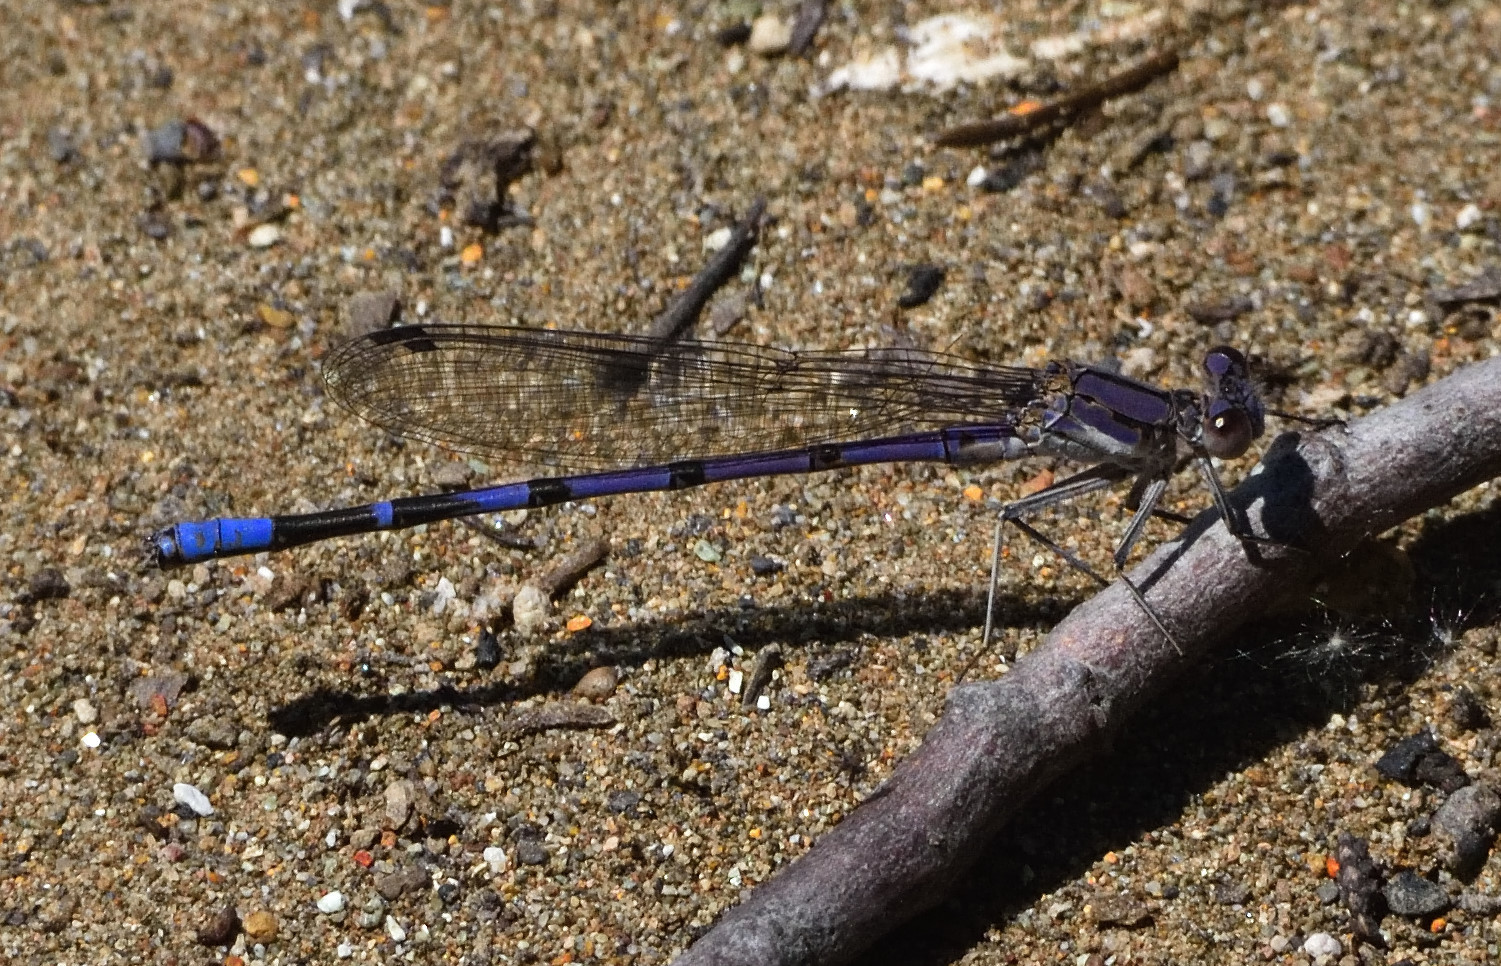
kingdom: Animalia
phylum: Arthropoda
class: Insecta
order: Odonata
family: Coenagrionidae
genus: Argia
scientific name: Argia emma
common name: Emma's dancer
